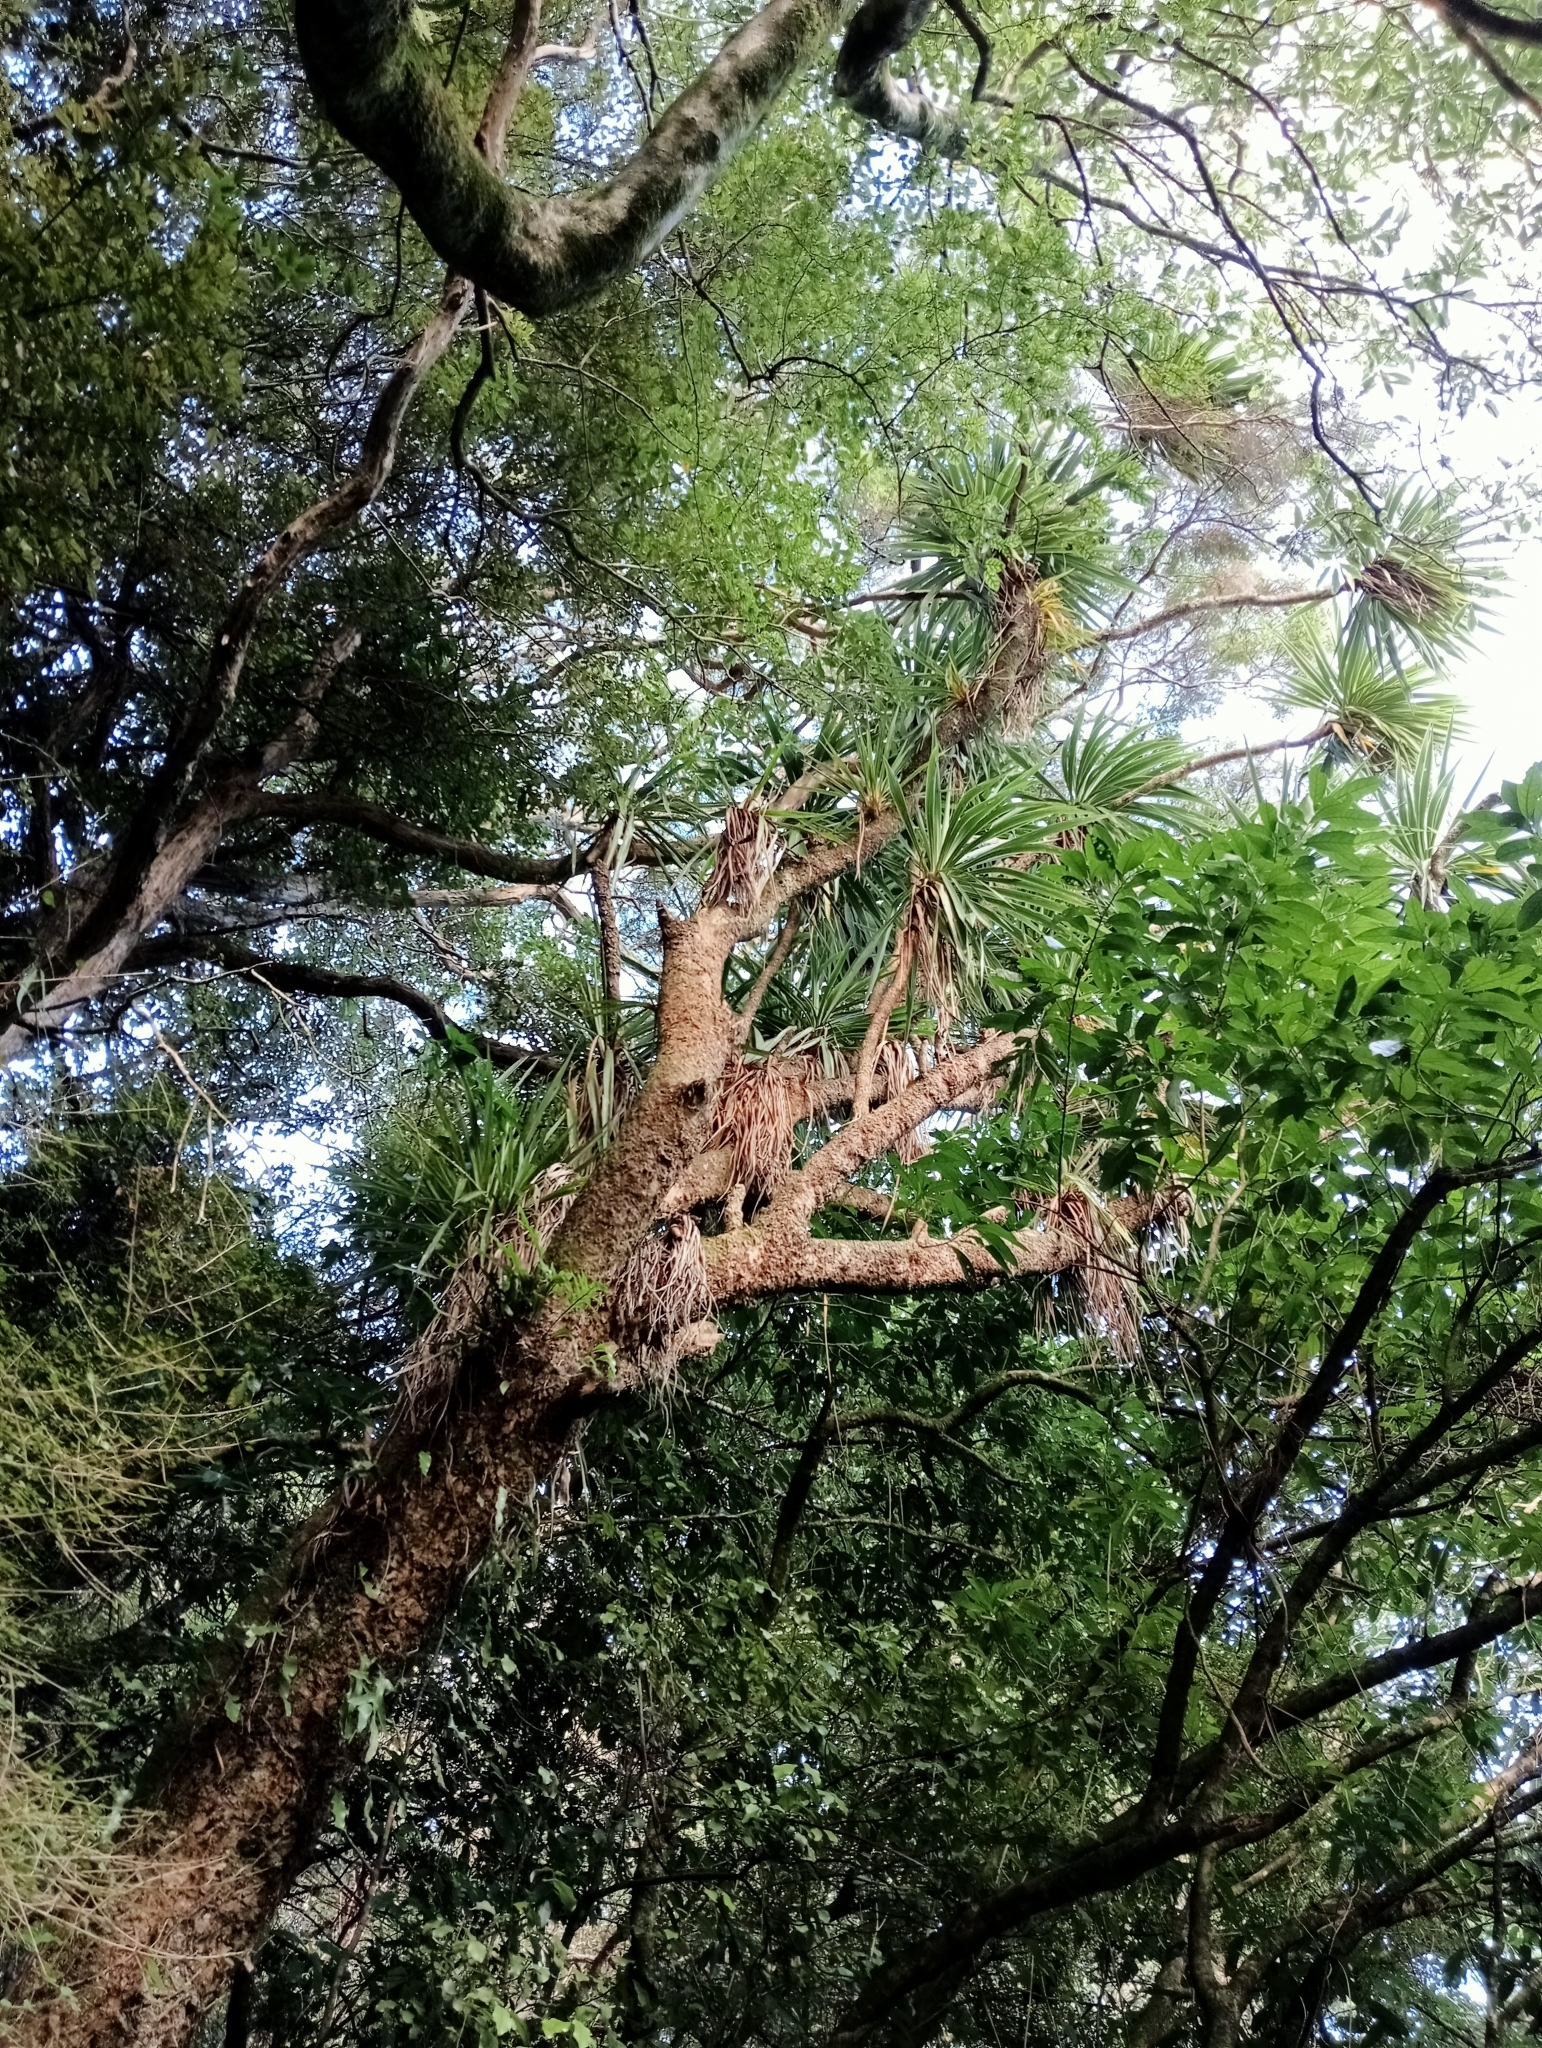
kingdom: Plantae
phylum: Tracheophyta
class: Liliopsida
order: Asparagales
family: Asparagaceae
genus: Cordyline
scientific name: Cordyline australis
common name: Cabbage-palm
